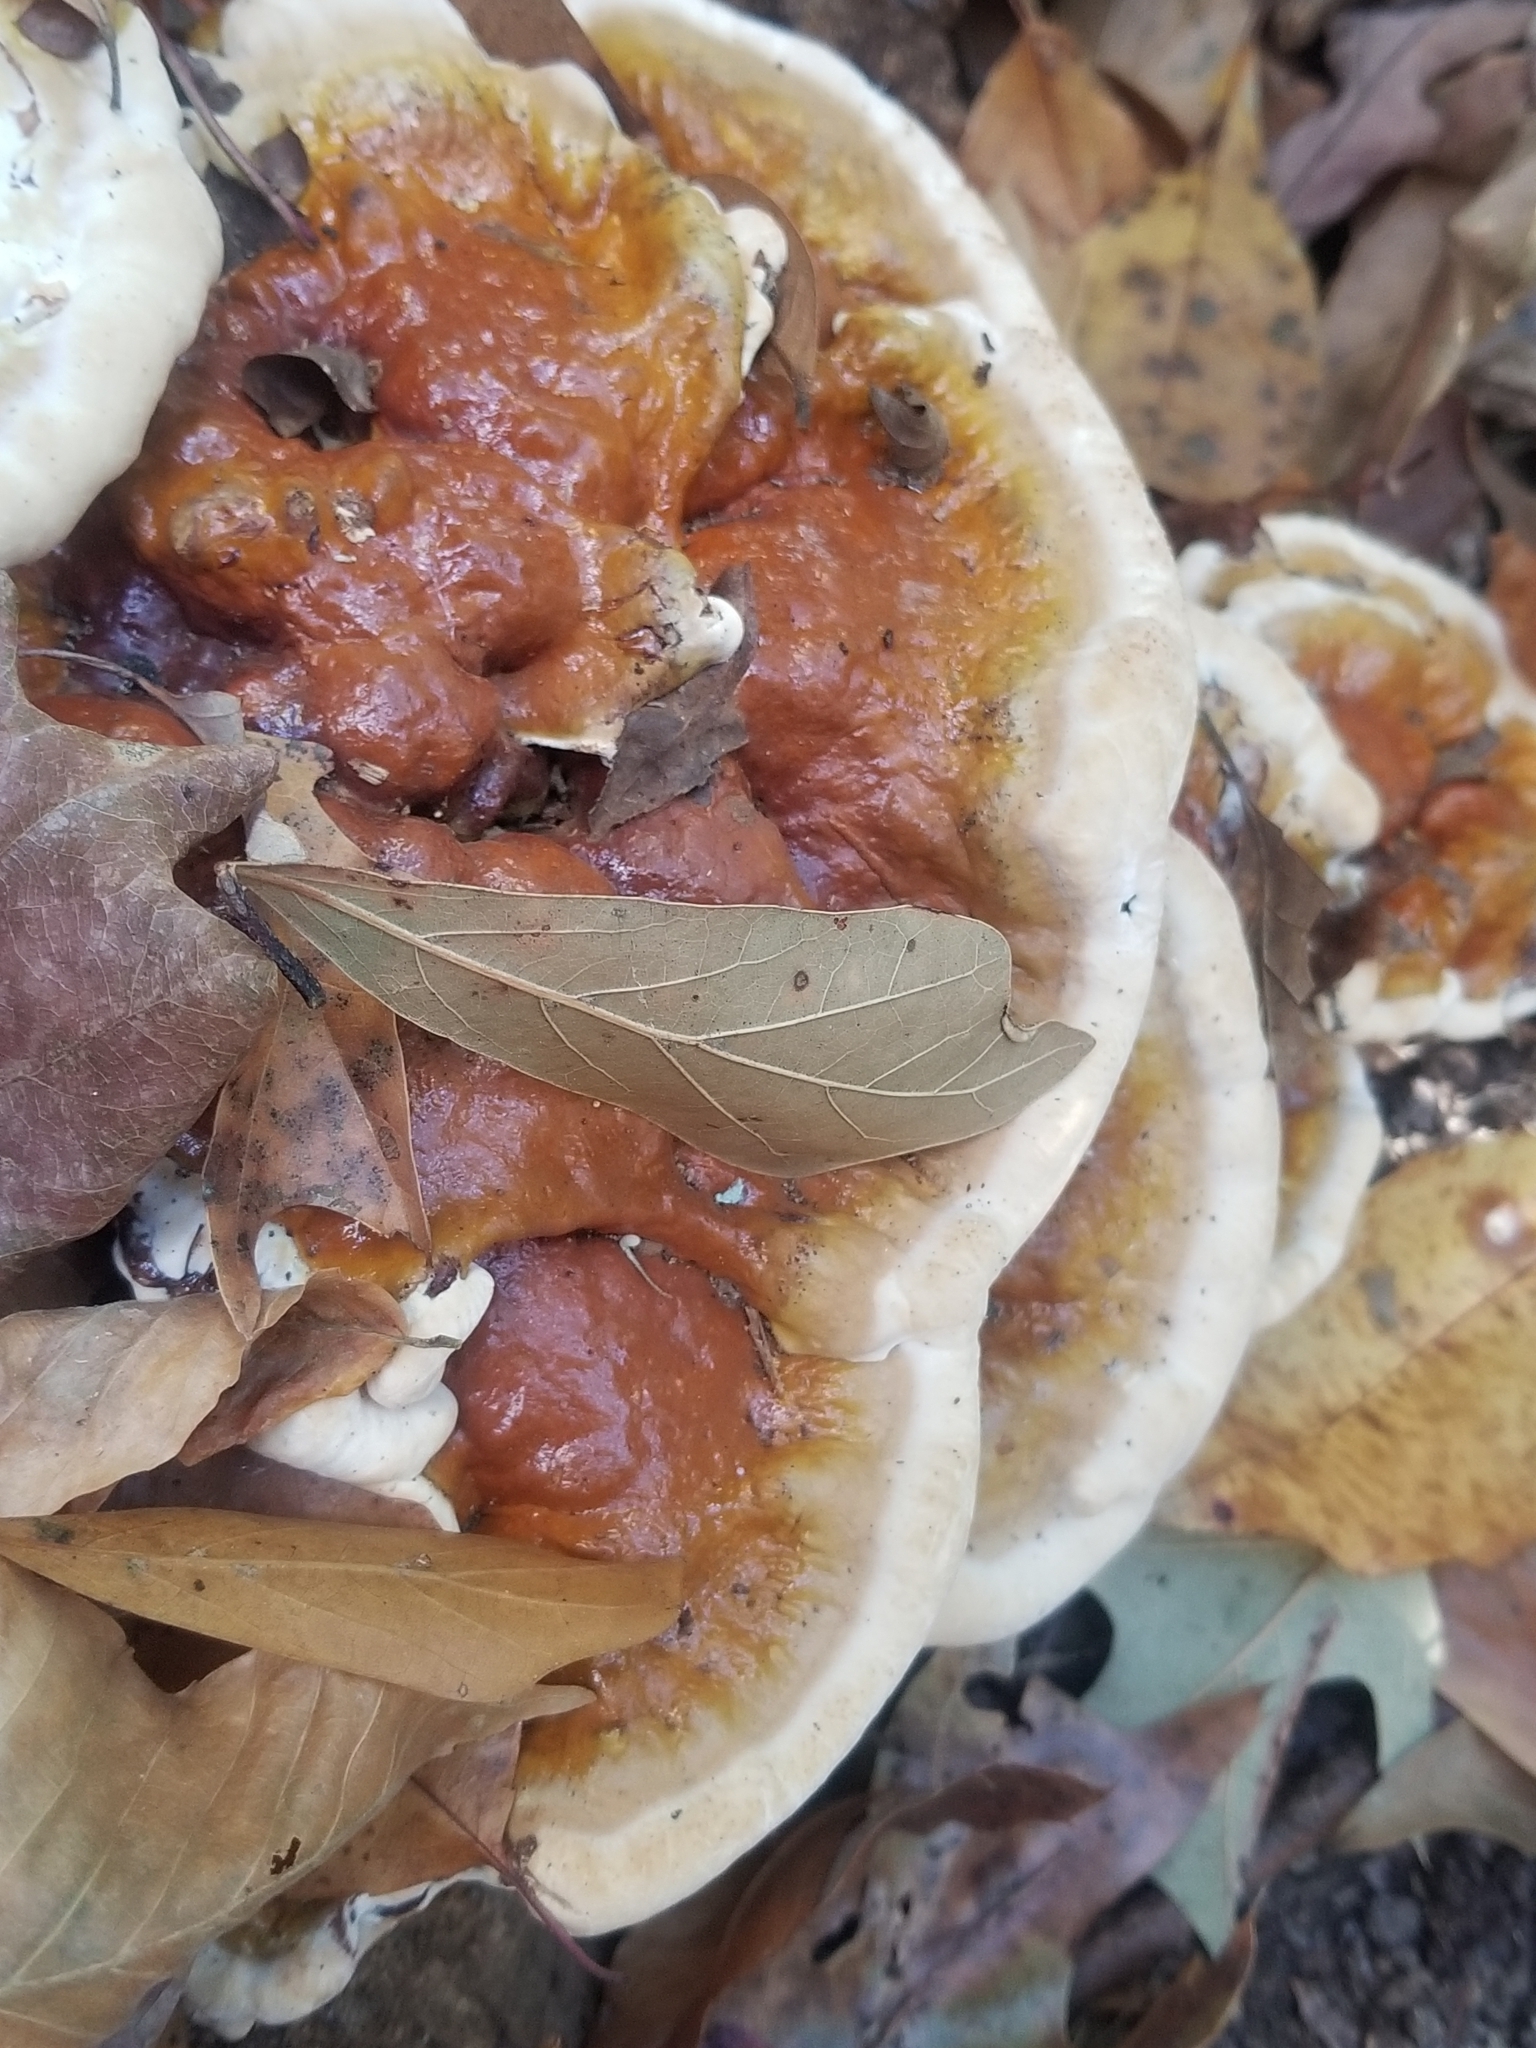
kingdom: Fungi
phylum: Basidiomycota
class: Agaricomycetes
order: Polyporales
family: Polyporaceae
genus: Ganoderma
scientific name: Ganoderma resinaceum
